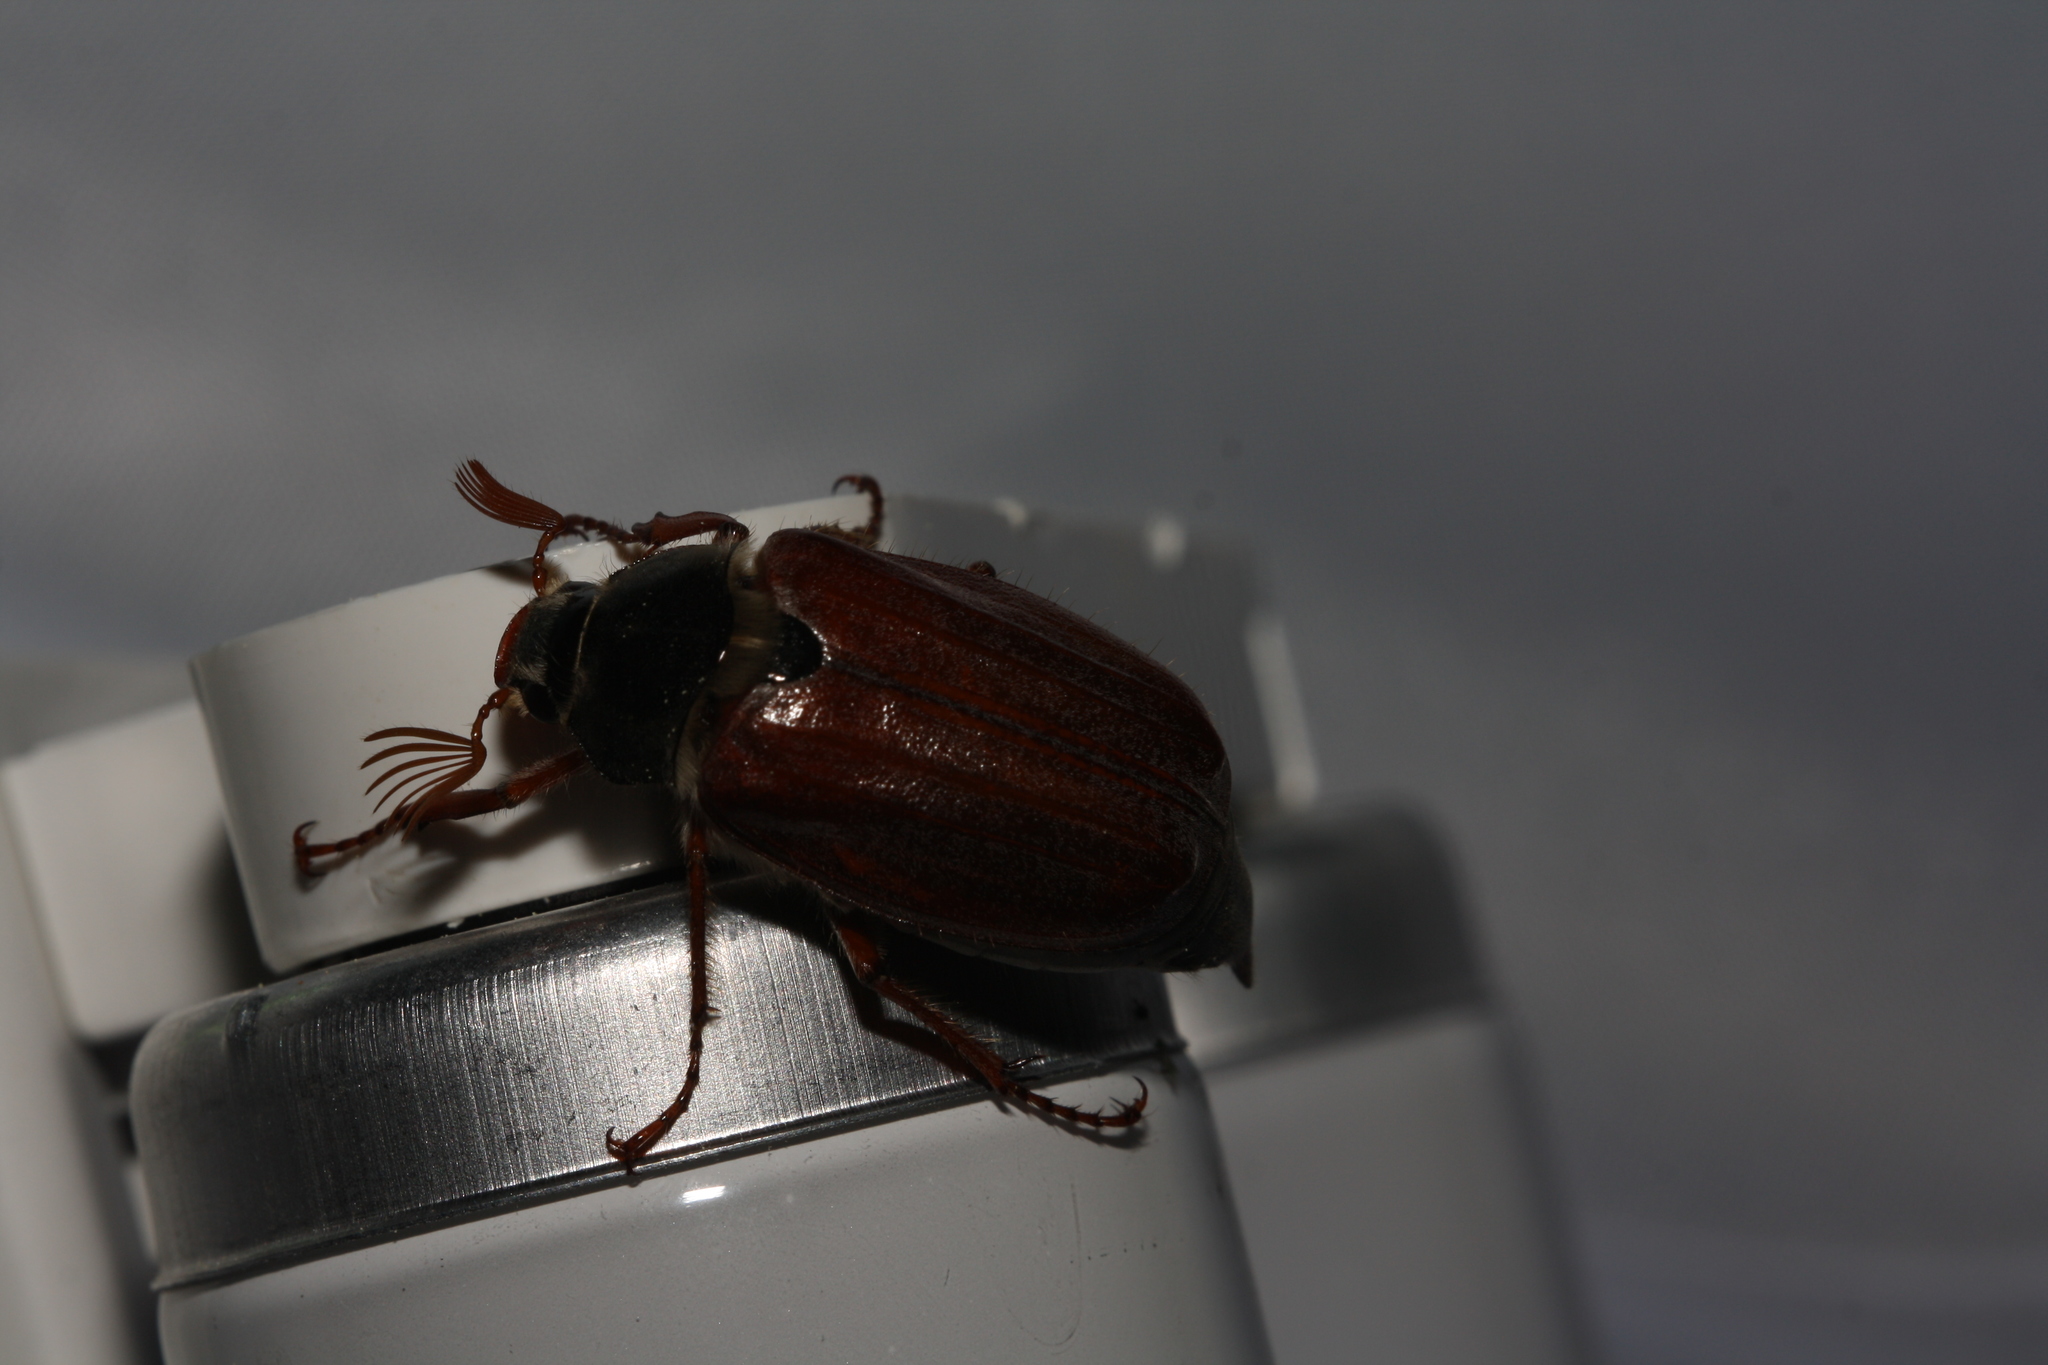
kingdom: Animalia
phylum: Arthropoda
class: Insecta
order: Coleoptera
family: Scarabaeidae
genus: Melolontha
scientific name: Melolontha melolontha
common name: Cockchafer maybeetle
